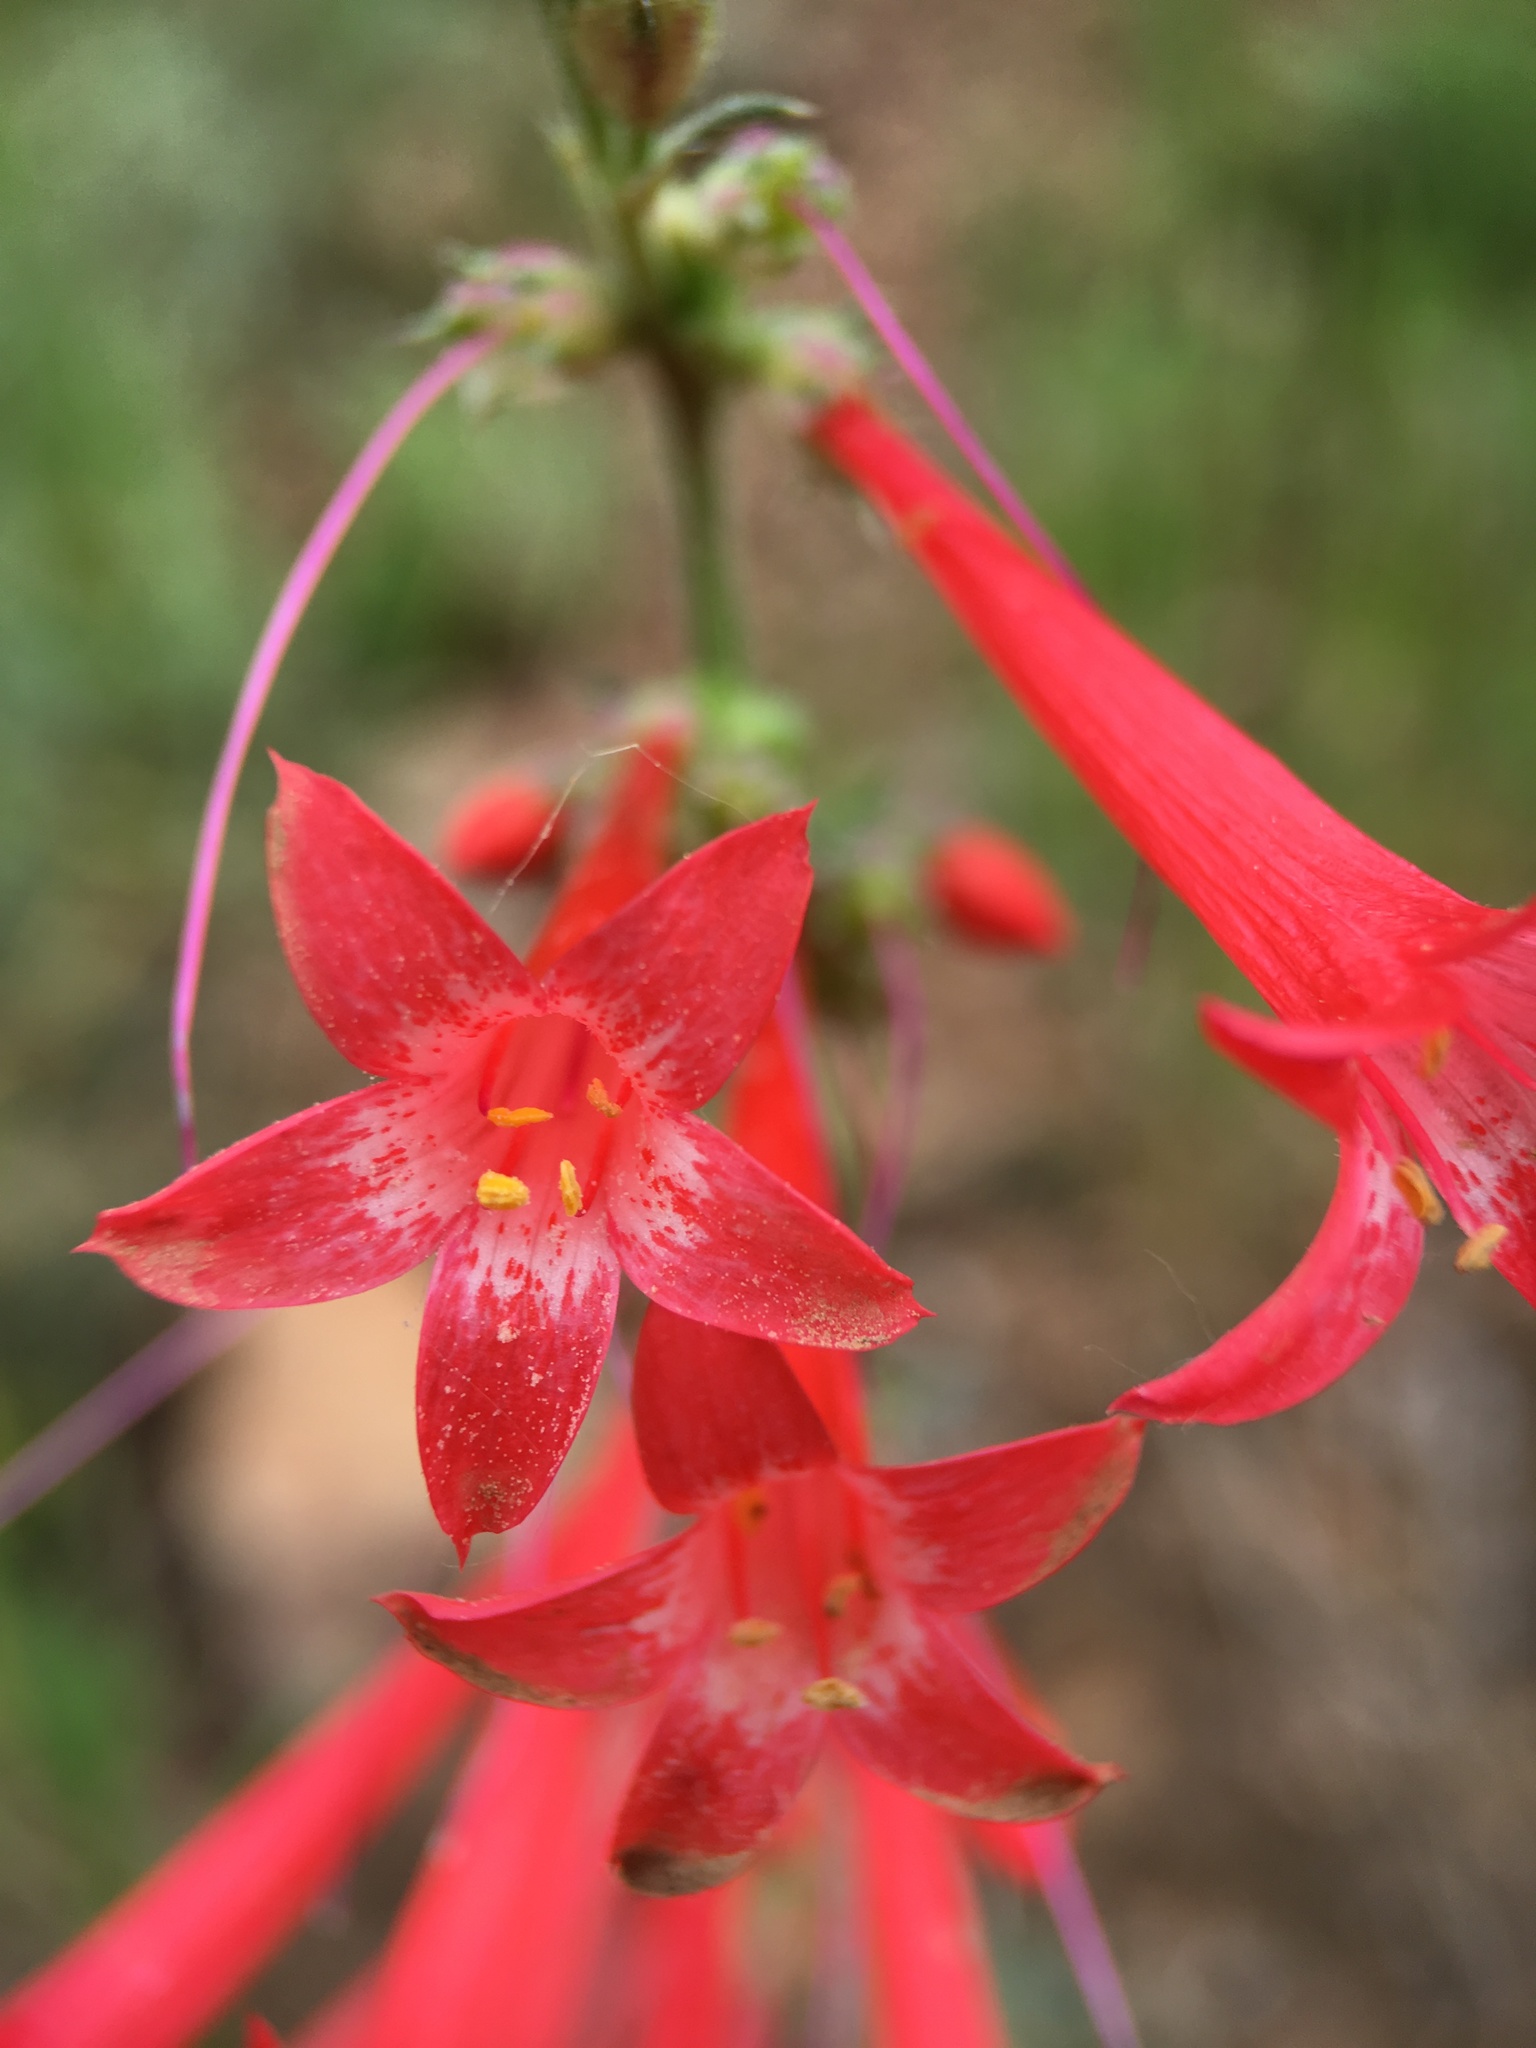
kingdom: Plantae
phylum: Tracheophyta
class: Magnoliopsida
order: Ericales
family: Polemoniaceae
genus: Ipomopsis
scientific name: Ipomopsis aggregata
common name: Scarlet gilia
